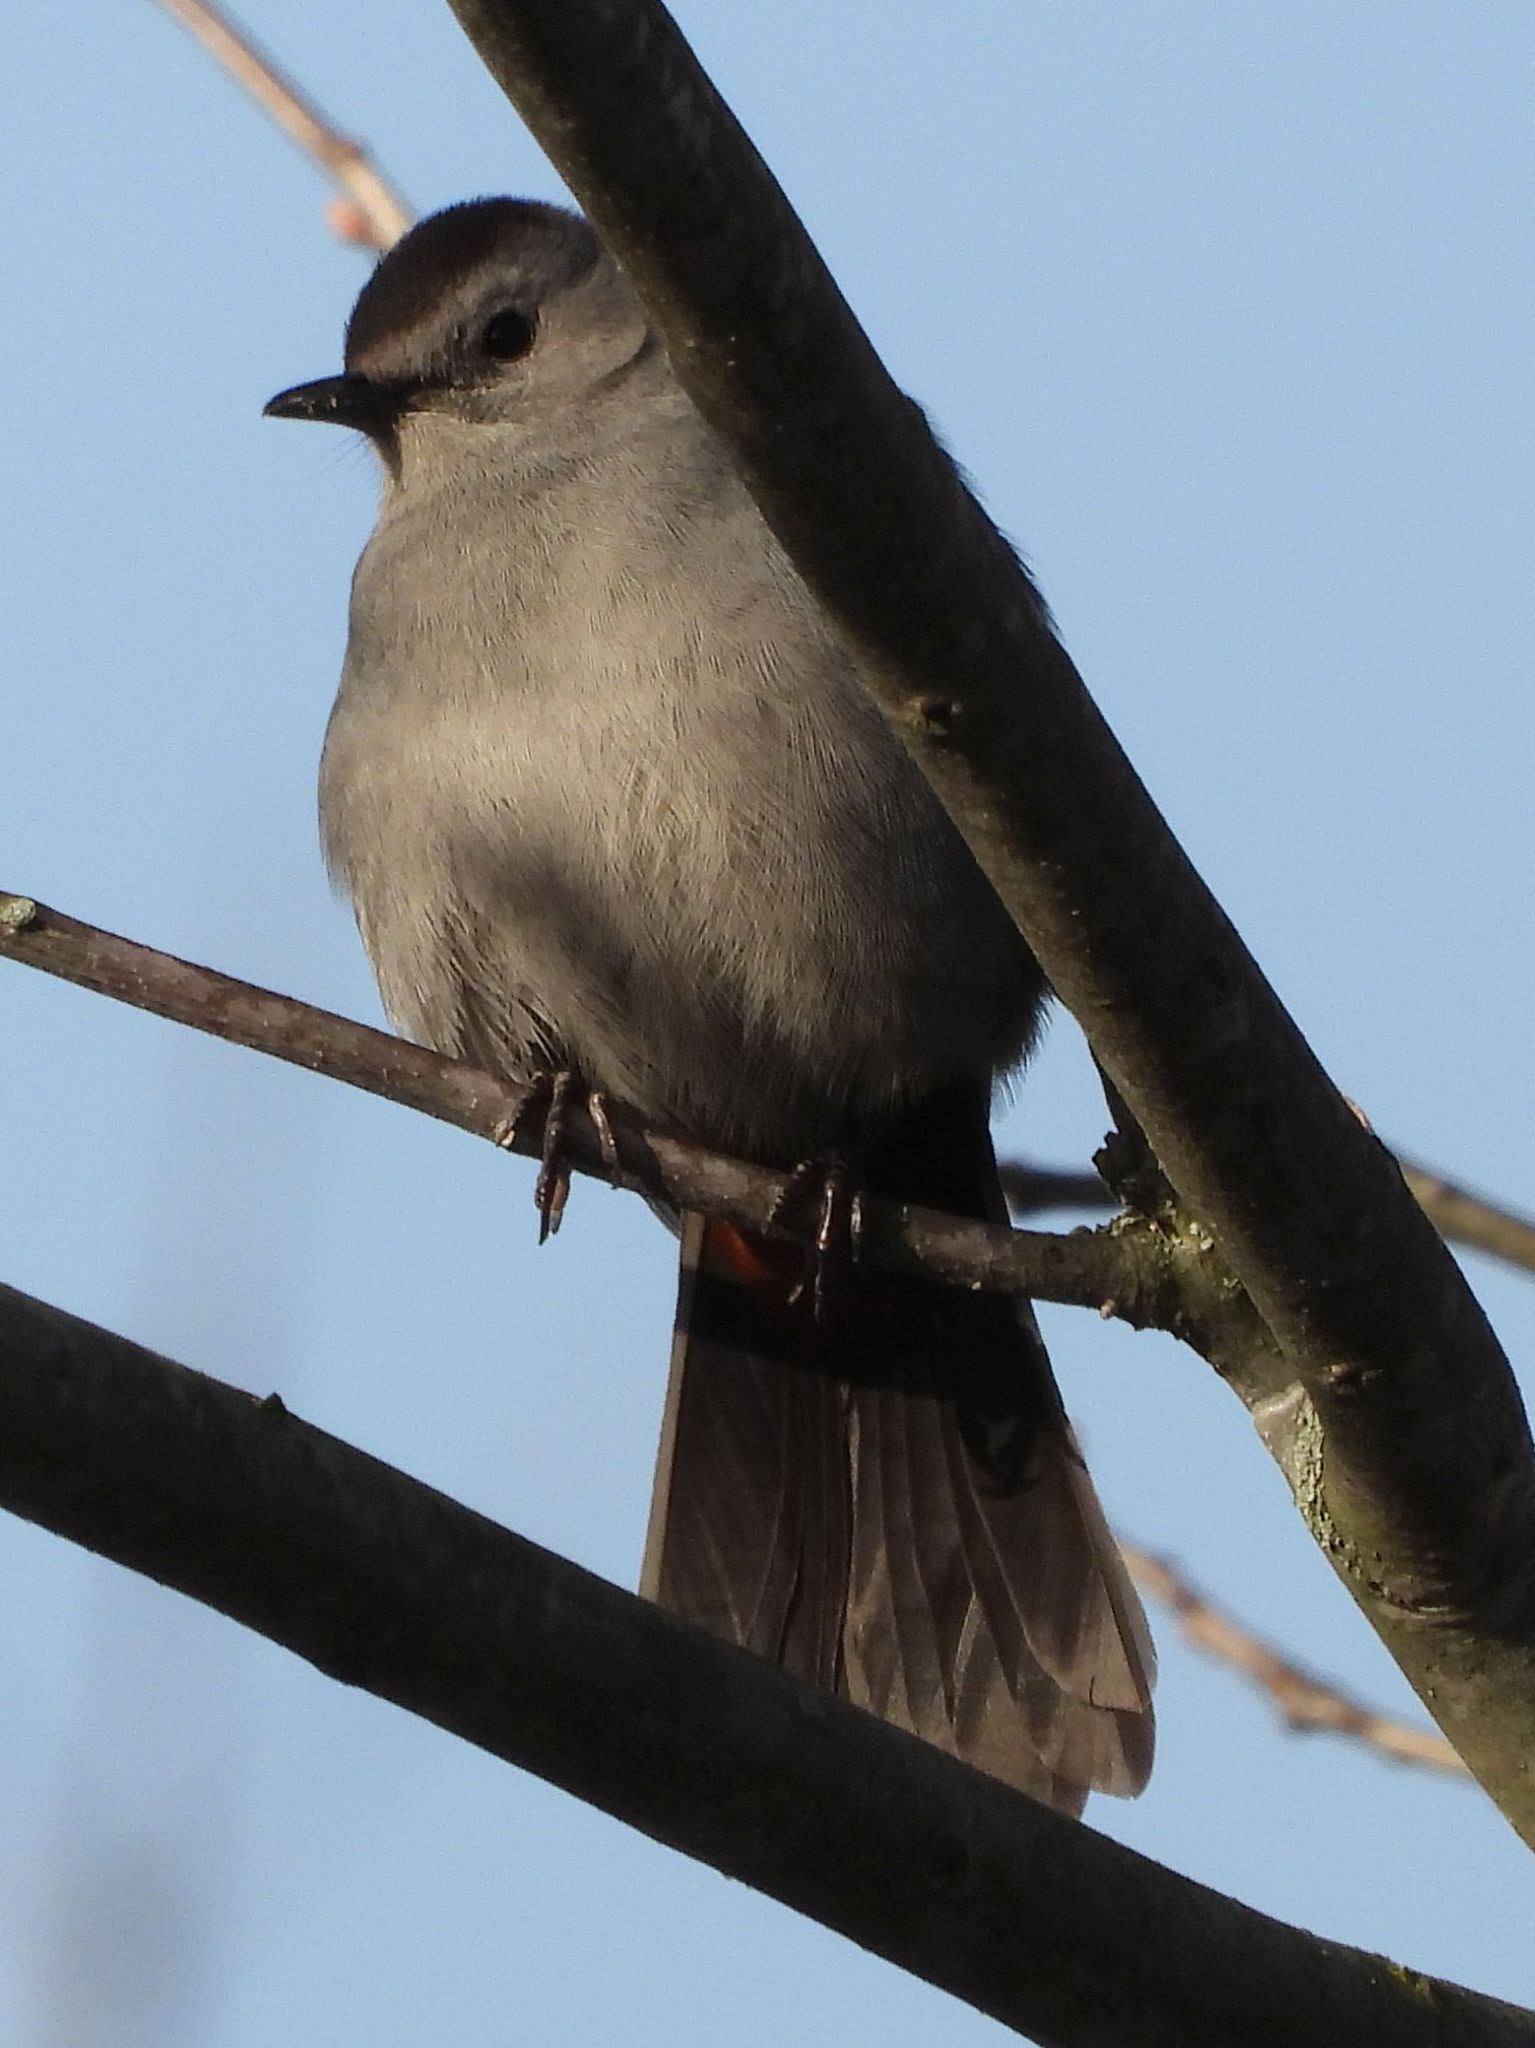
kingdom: Animalia
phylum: Chordata
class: Aves
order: Passeriformes
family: Mimidae
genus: Dumetella
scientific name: Dumetella carolinensis
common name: Gray catbird
